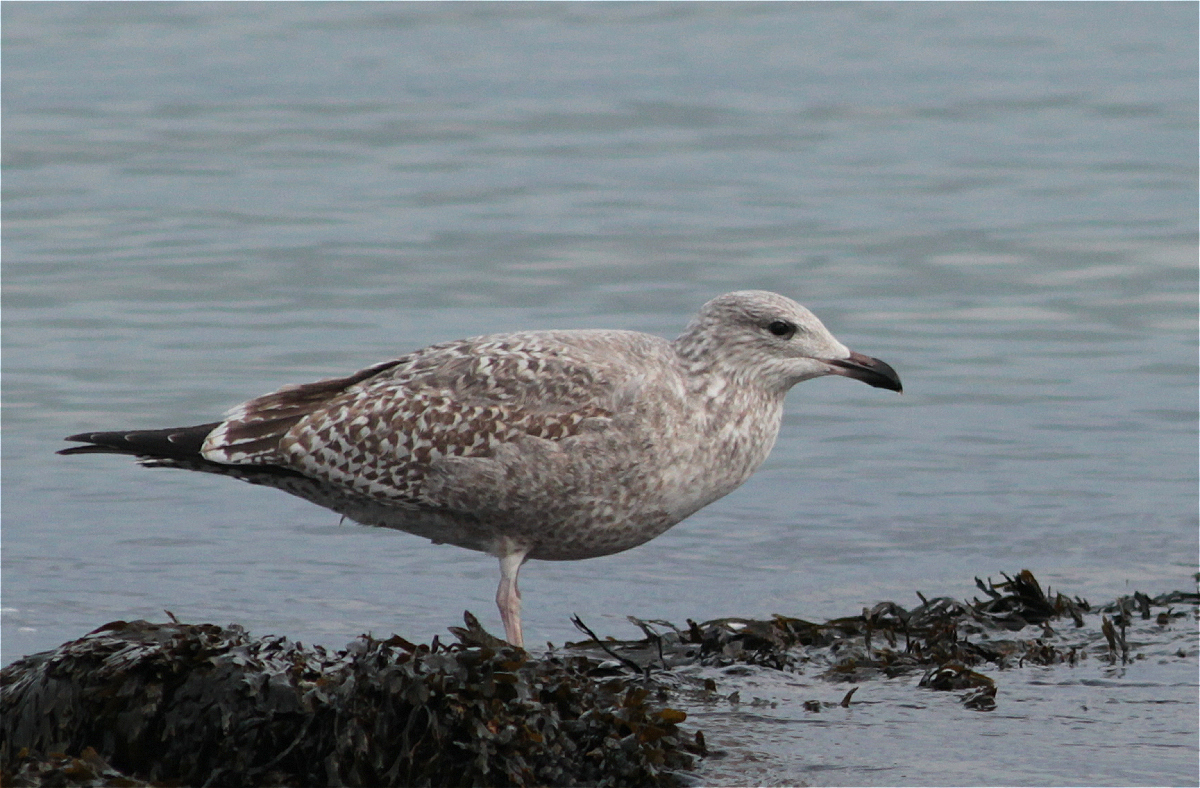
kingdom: Animalia
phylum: Chordata
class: Aves
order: Charadriiformes
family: Laridae
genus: Larus
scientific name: Larus argentatus
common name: Herring gull
